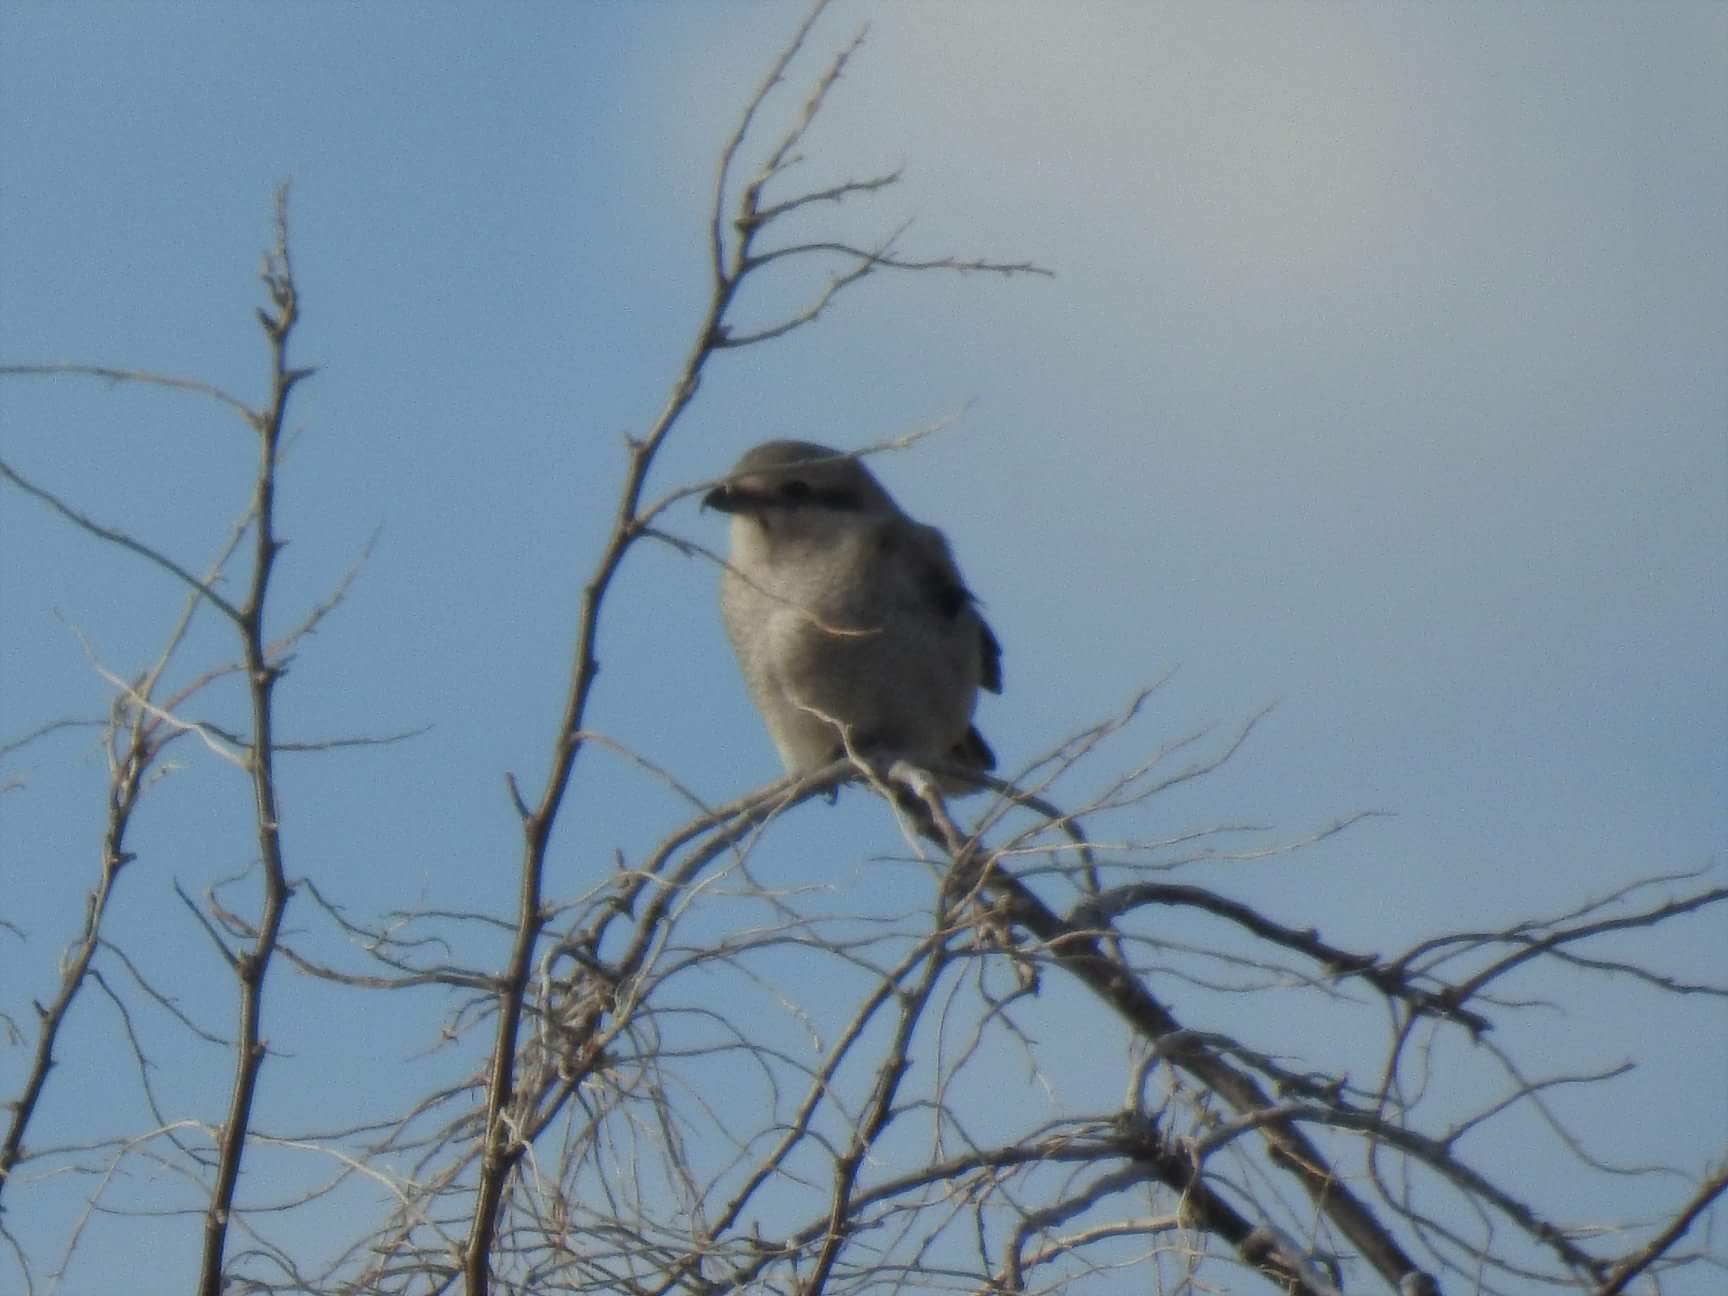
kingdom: Animalia
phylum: Chordata
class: Aves
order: Passeriformes
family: Laniidae
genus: Lanius
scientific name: Lanius borealis
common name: Northern shrike
